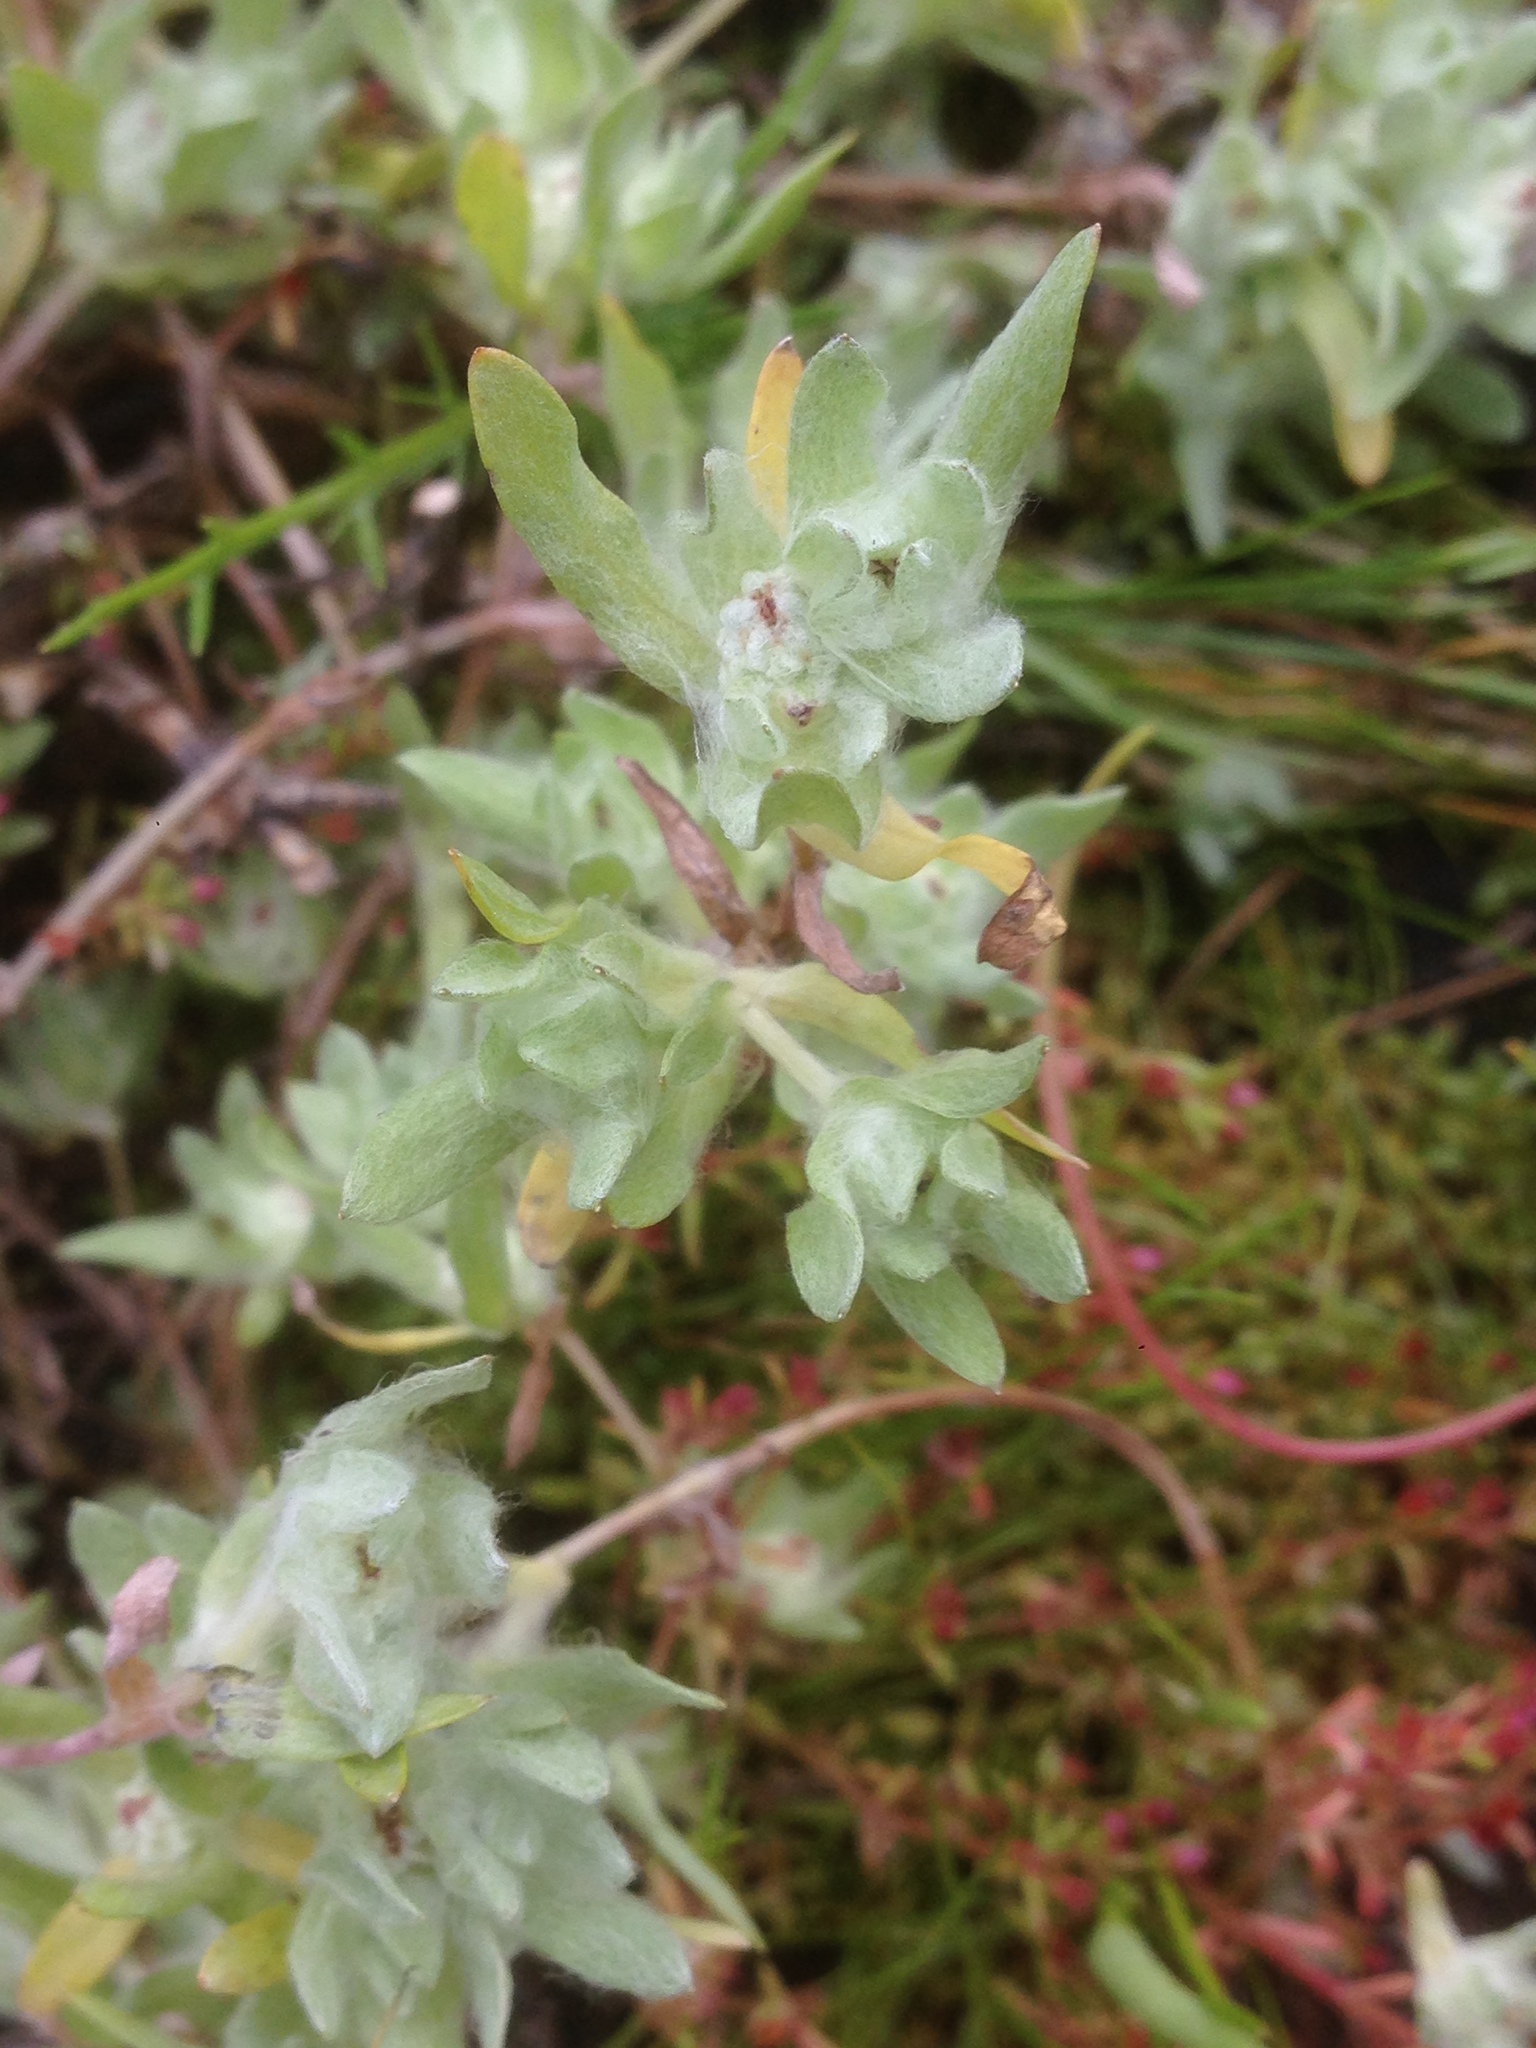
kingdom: Plantae
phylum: Tracheophyta
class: Magnoliopsida
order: Asterales
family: Asteraceae
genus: Psilocarphus
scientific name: Psilocarphus brevissimus
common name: Dwarf woollyheads
